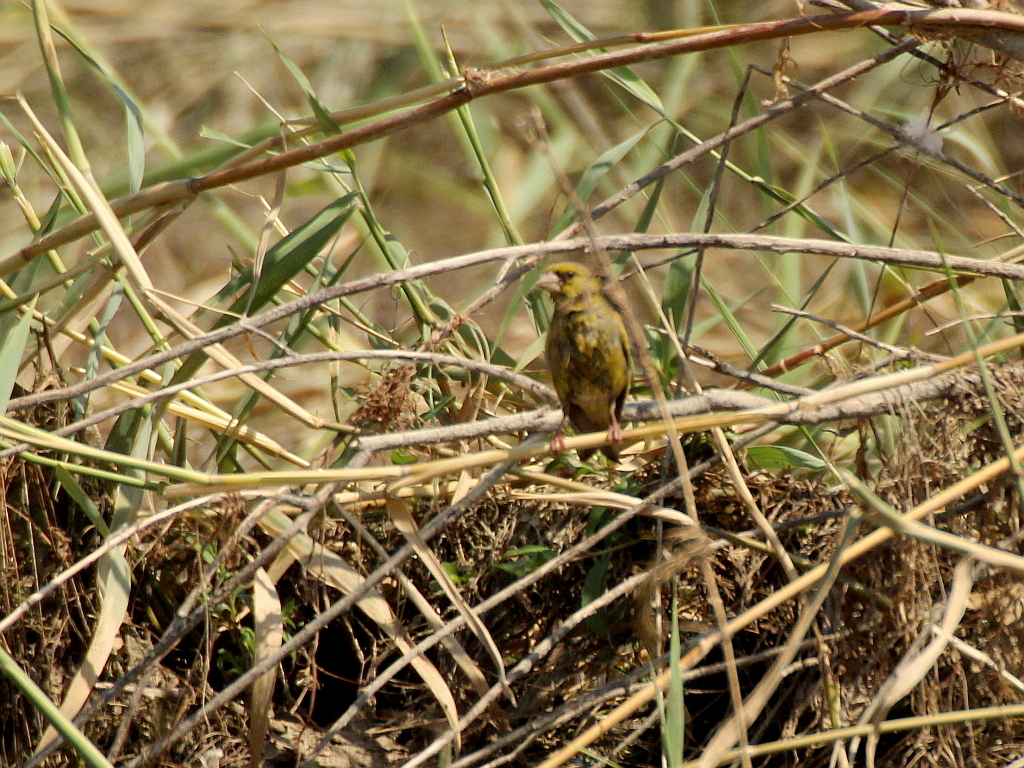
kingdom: Plantae
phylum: Tracheophyta
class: Liliopsida
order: Poales
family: Poaceae
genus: Chloris
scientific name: Chloris chloris
